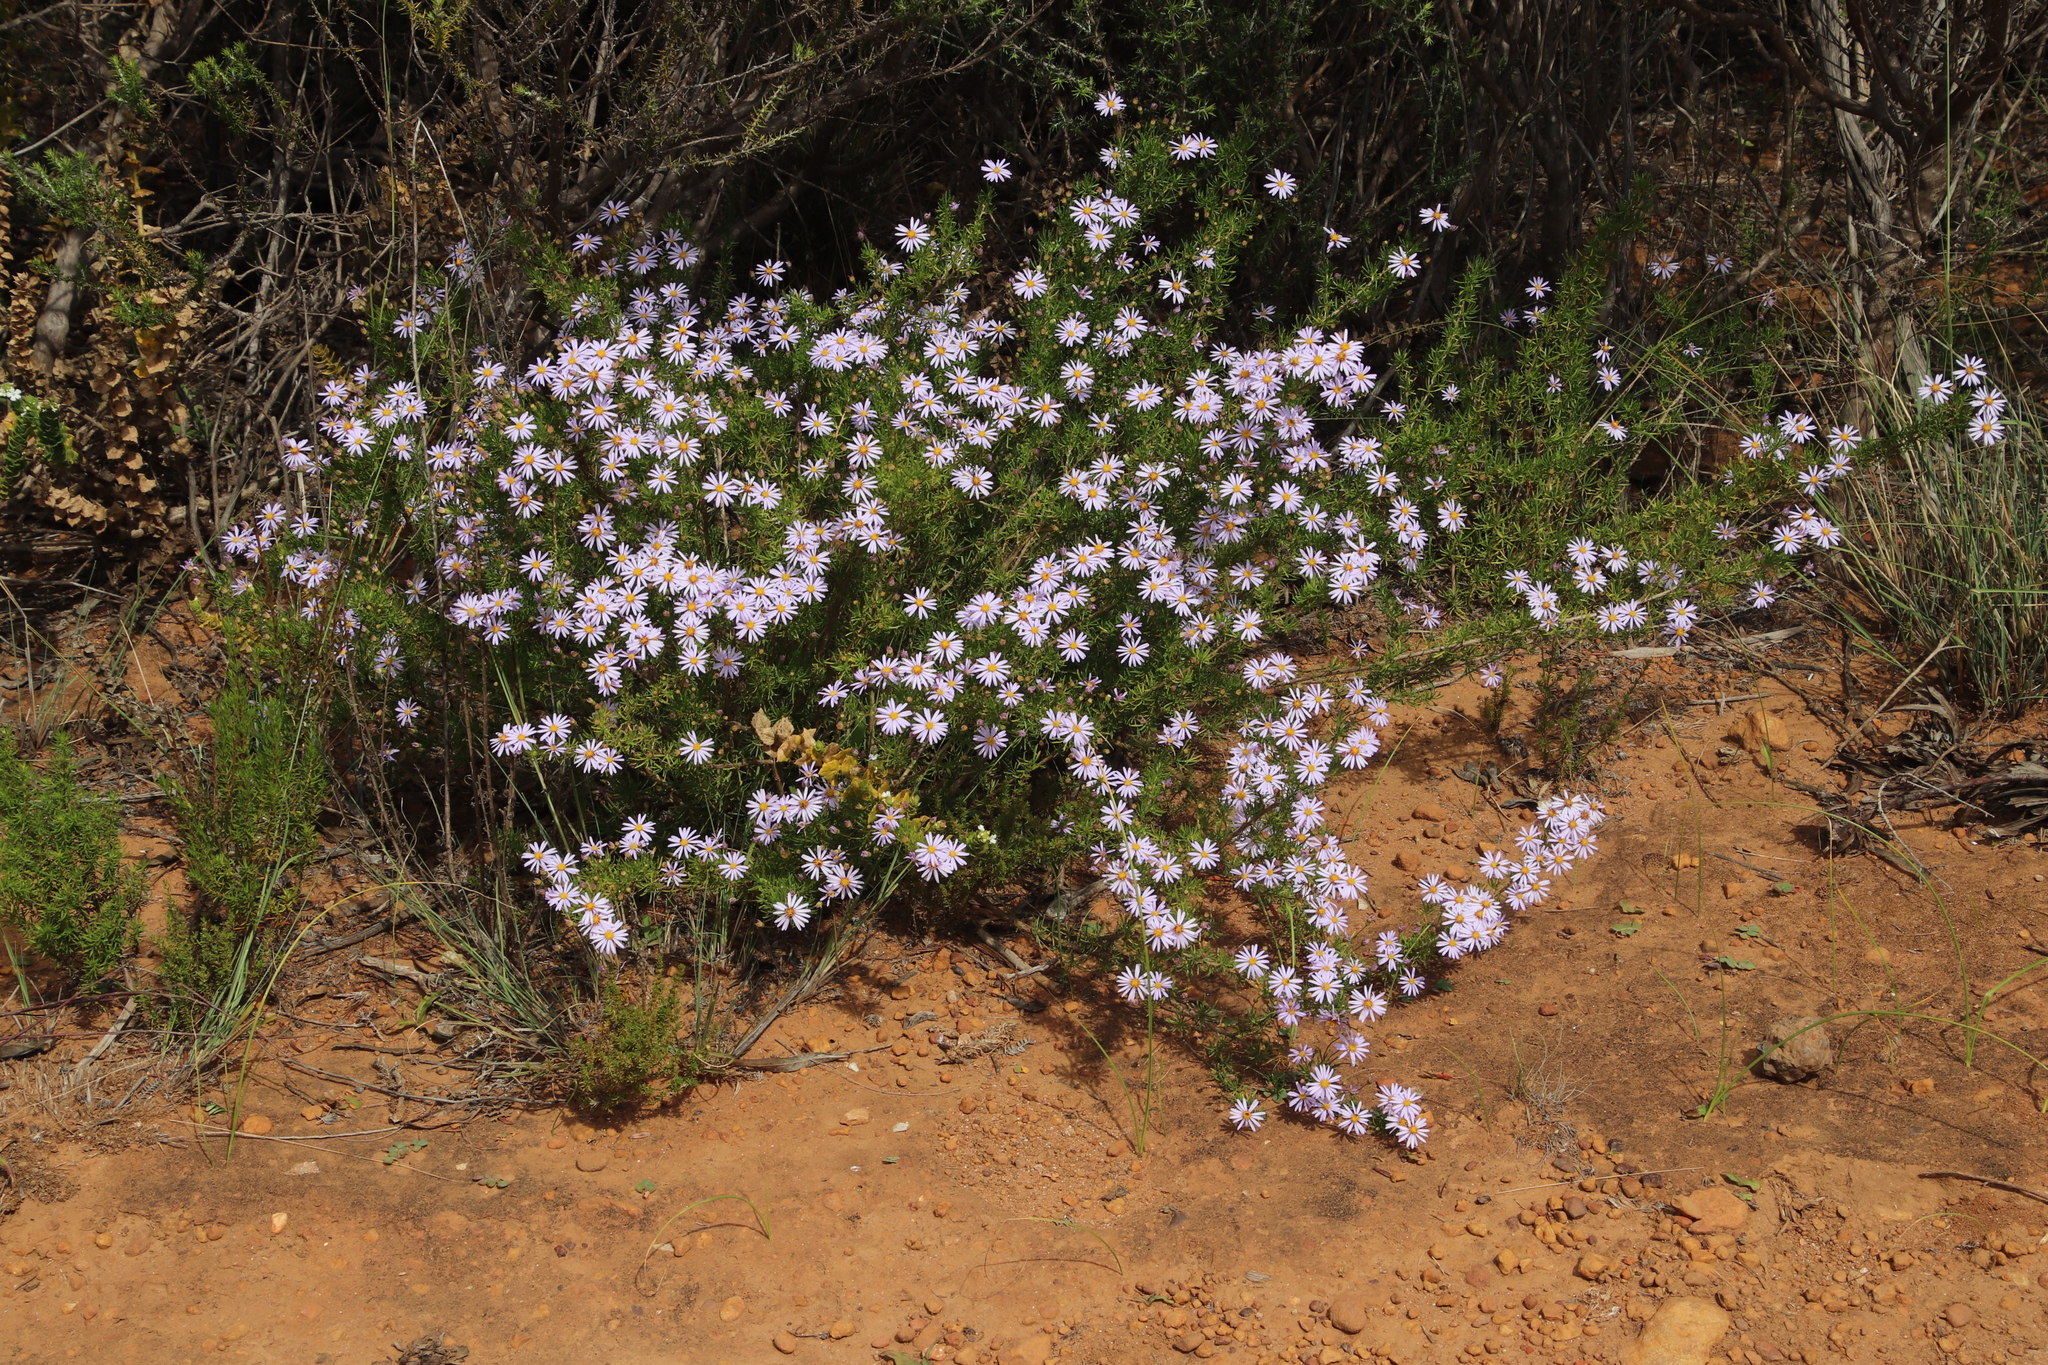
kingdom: Plantae
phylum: Tracheophyta
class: Magnoliopsida
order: Asterales
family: Asteraceae
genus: Felicia
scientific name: Felicia fruticosa
